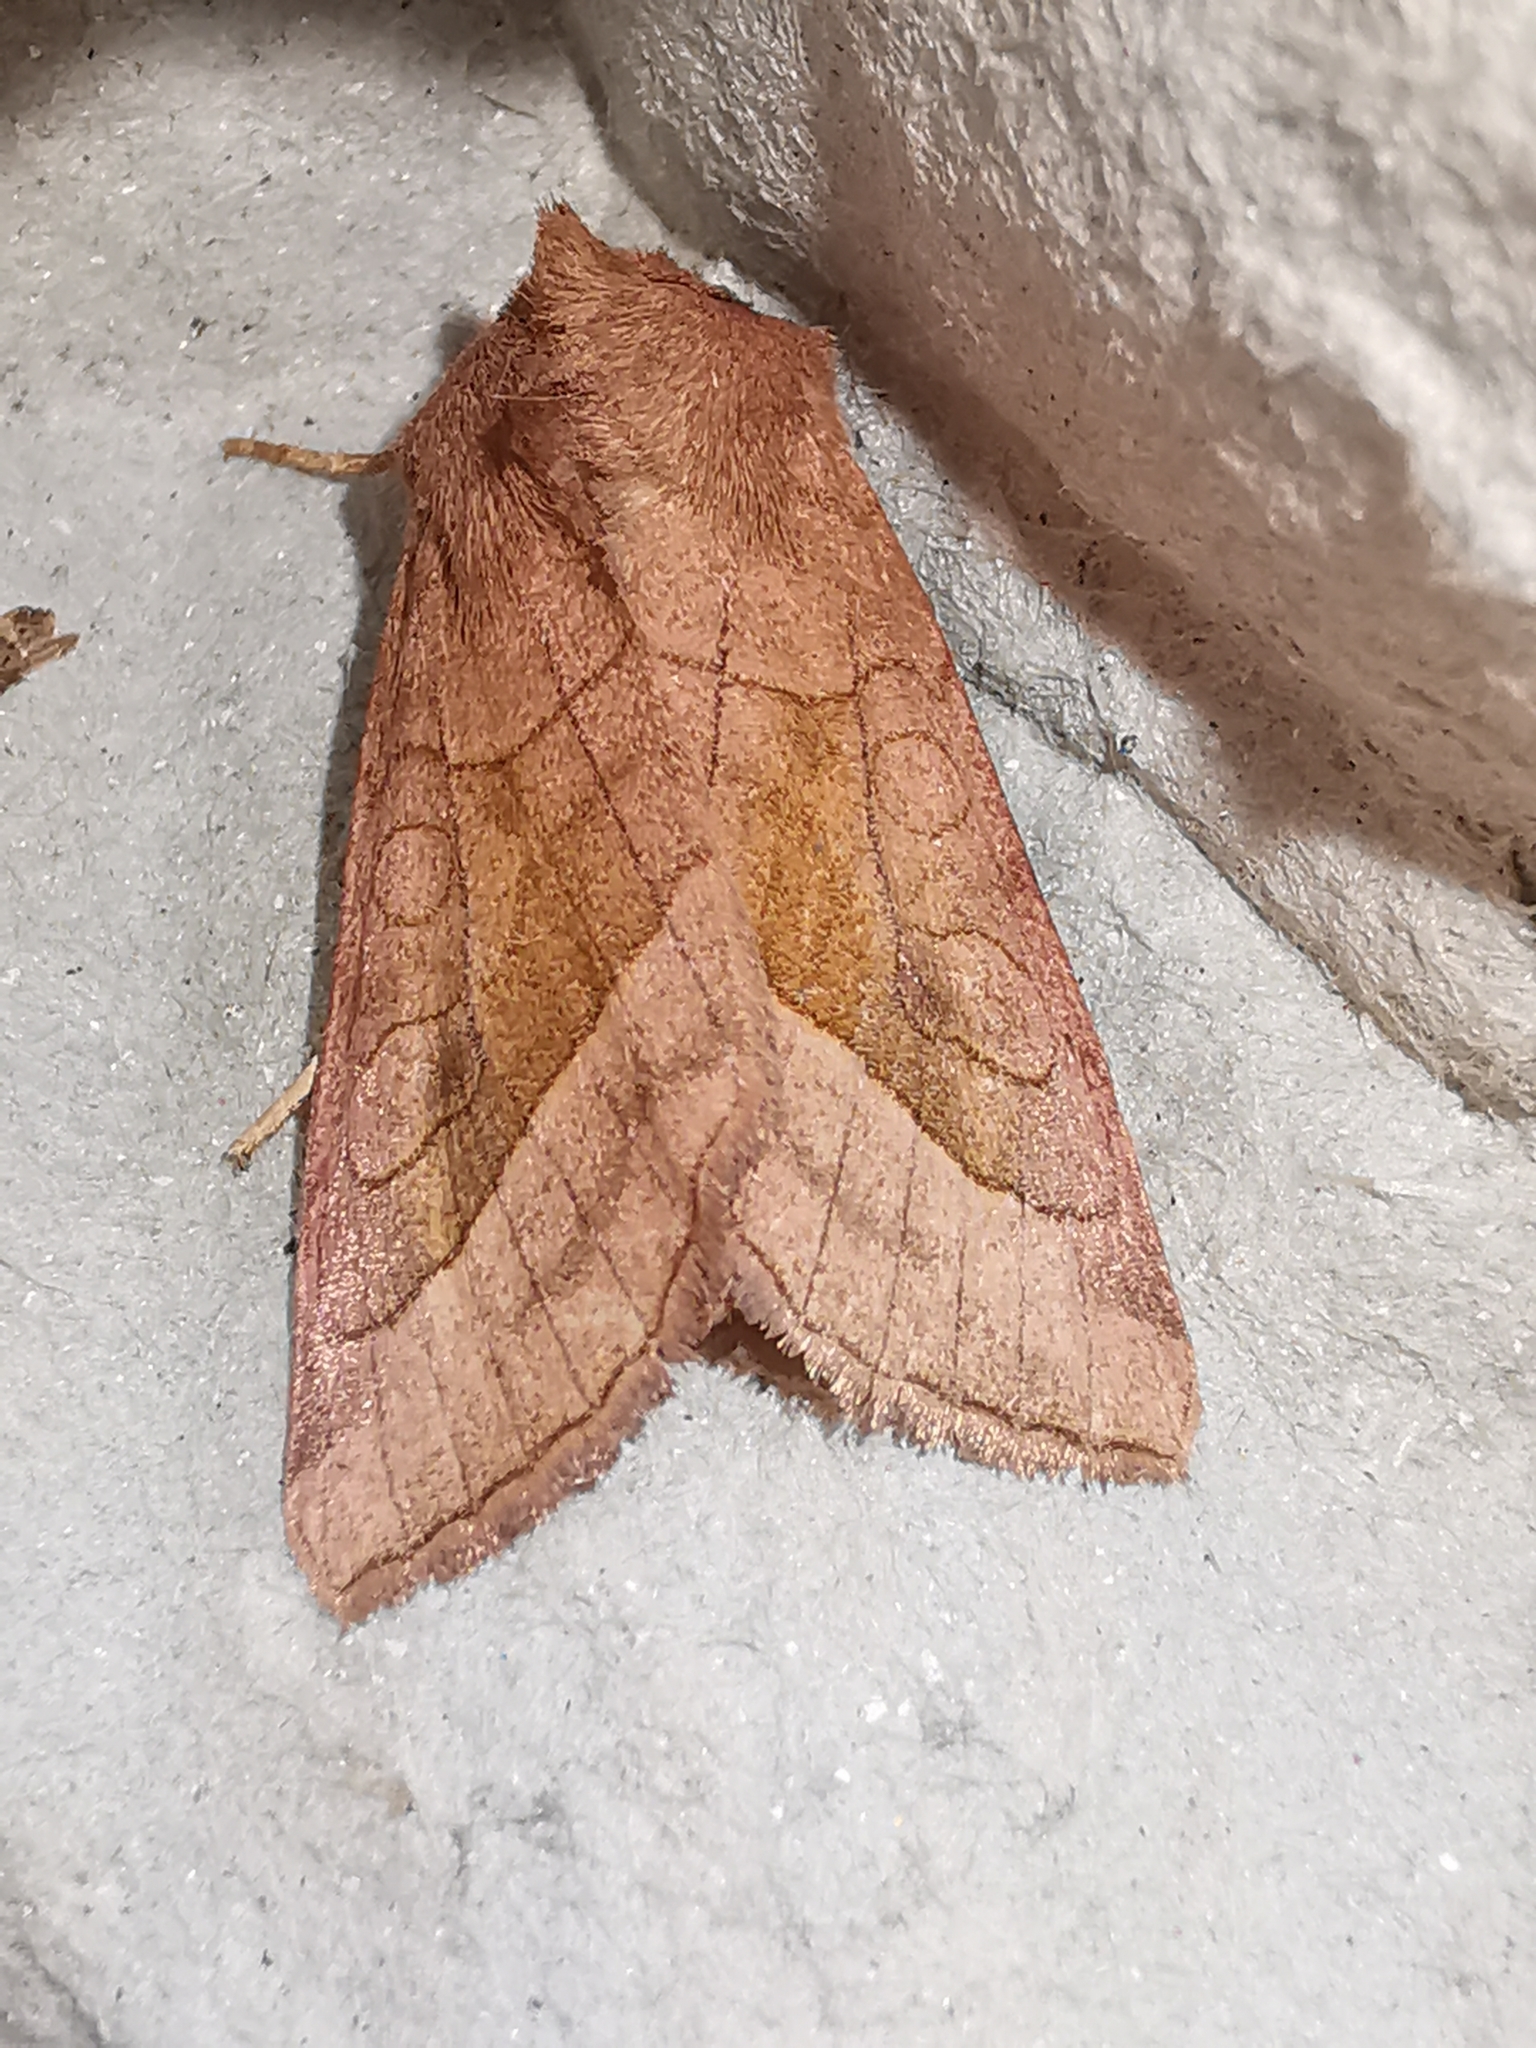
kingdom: Animalia
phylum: Arthropoda
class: Insecta
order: Lepidoptera
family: Noctuidae
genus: Hydraecia
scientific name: Hydraecia micacea
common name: Rosy rustic
